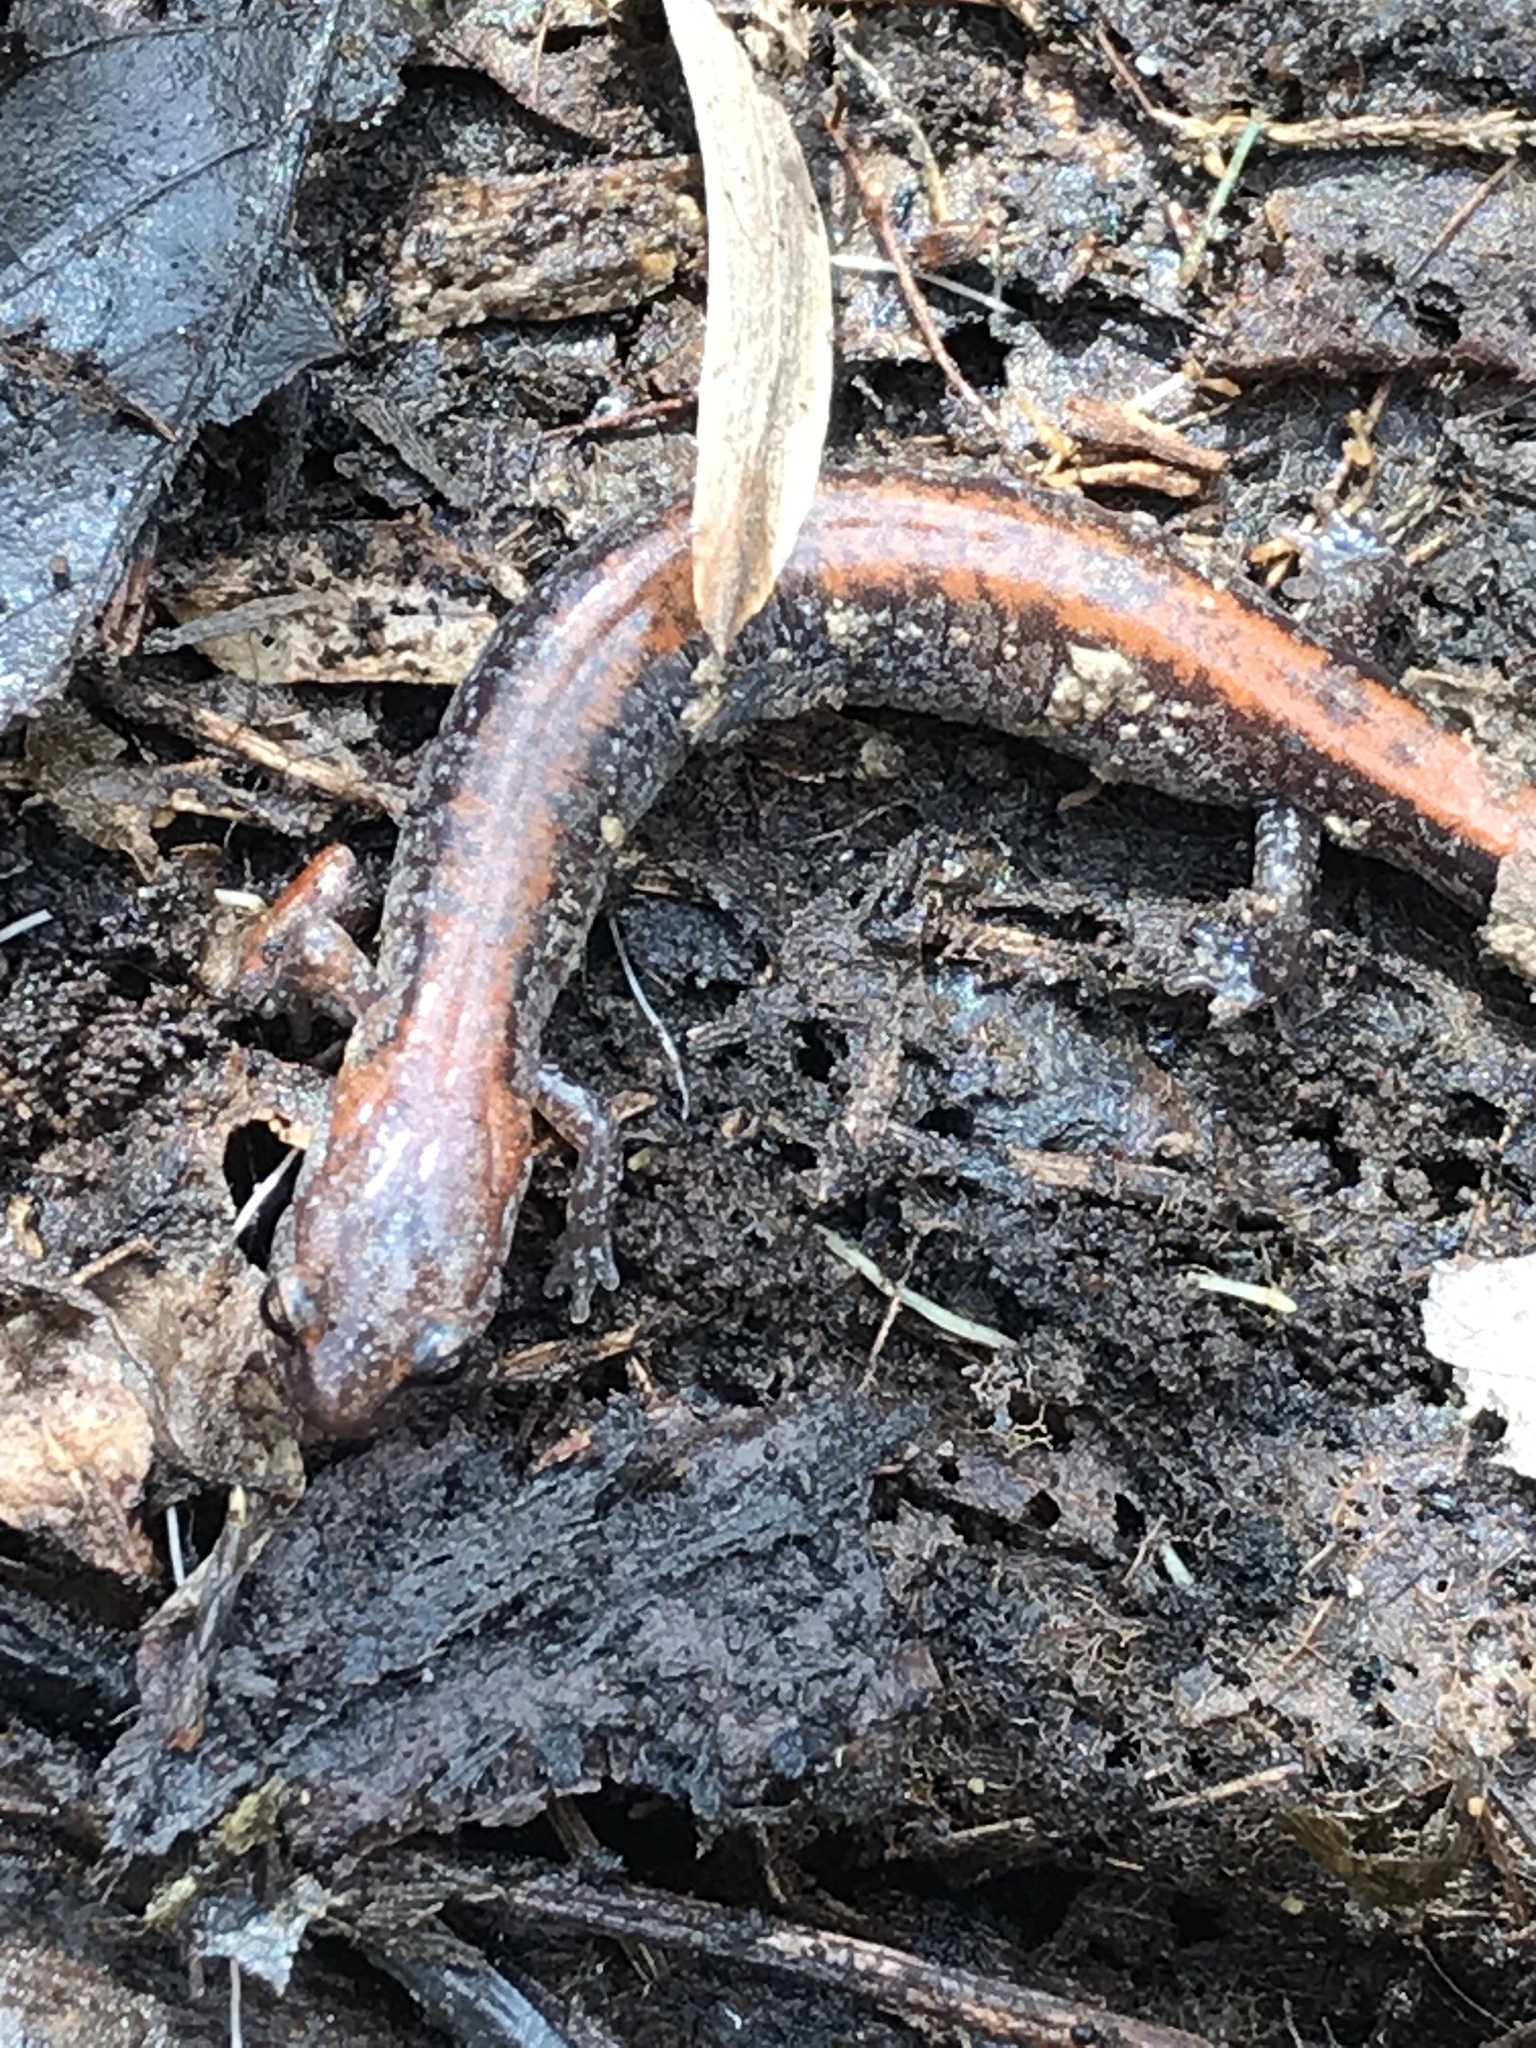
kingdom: Animalia
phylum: Chordata
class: Amphibia
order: Caudata
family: Plethodontidae
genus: Plethodon
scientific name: Plethodon cinereus
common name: Redback salamander
